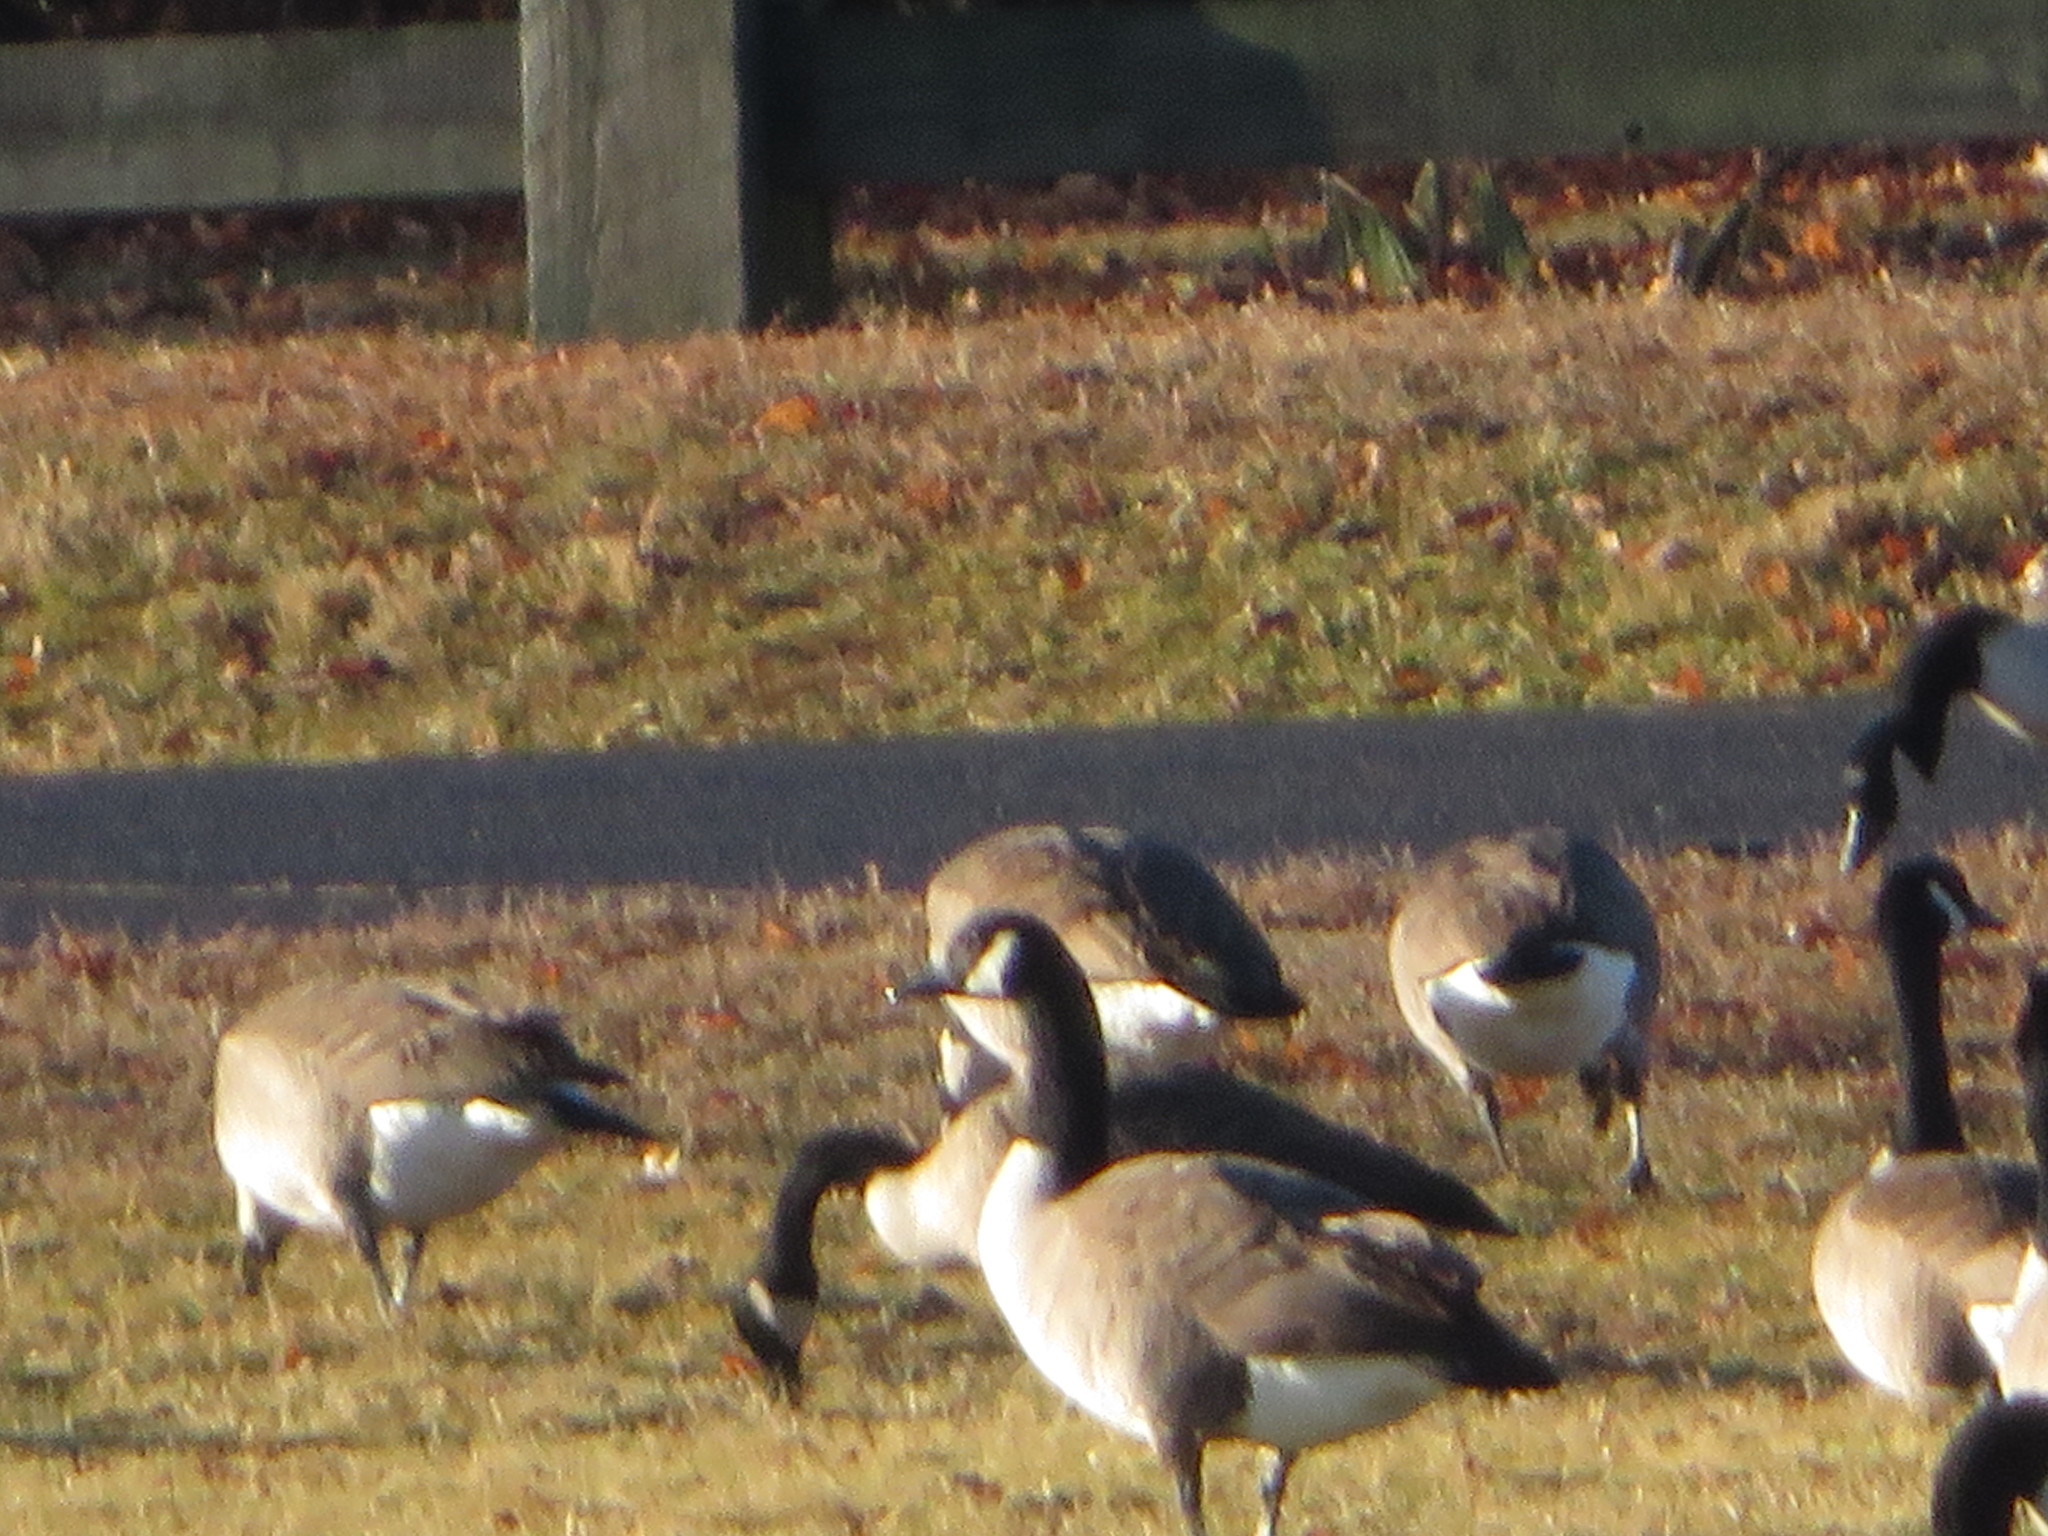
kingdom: Animalia
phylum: Chordata
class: Aves
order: Anseriformes
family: Anatidae
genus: Branta
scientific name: Branta canadensis
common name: Canada goose
